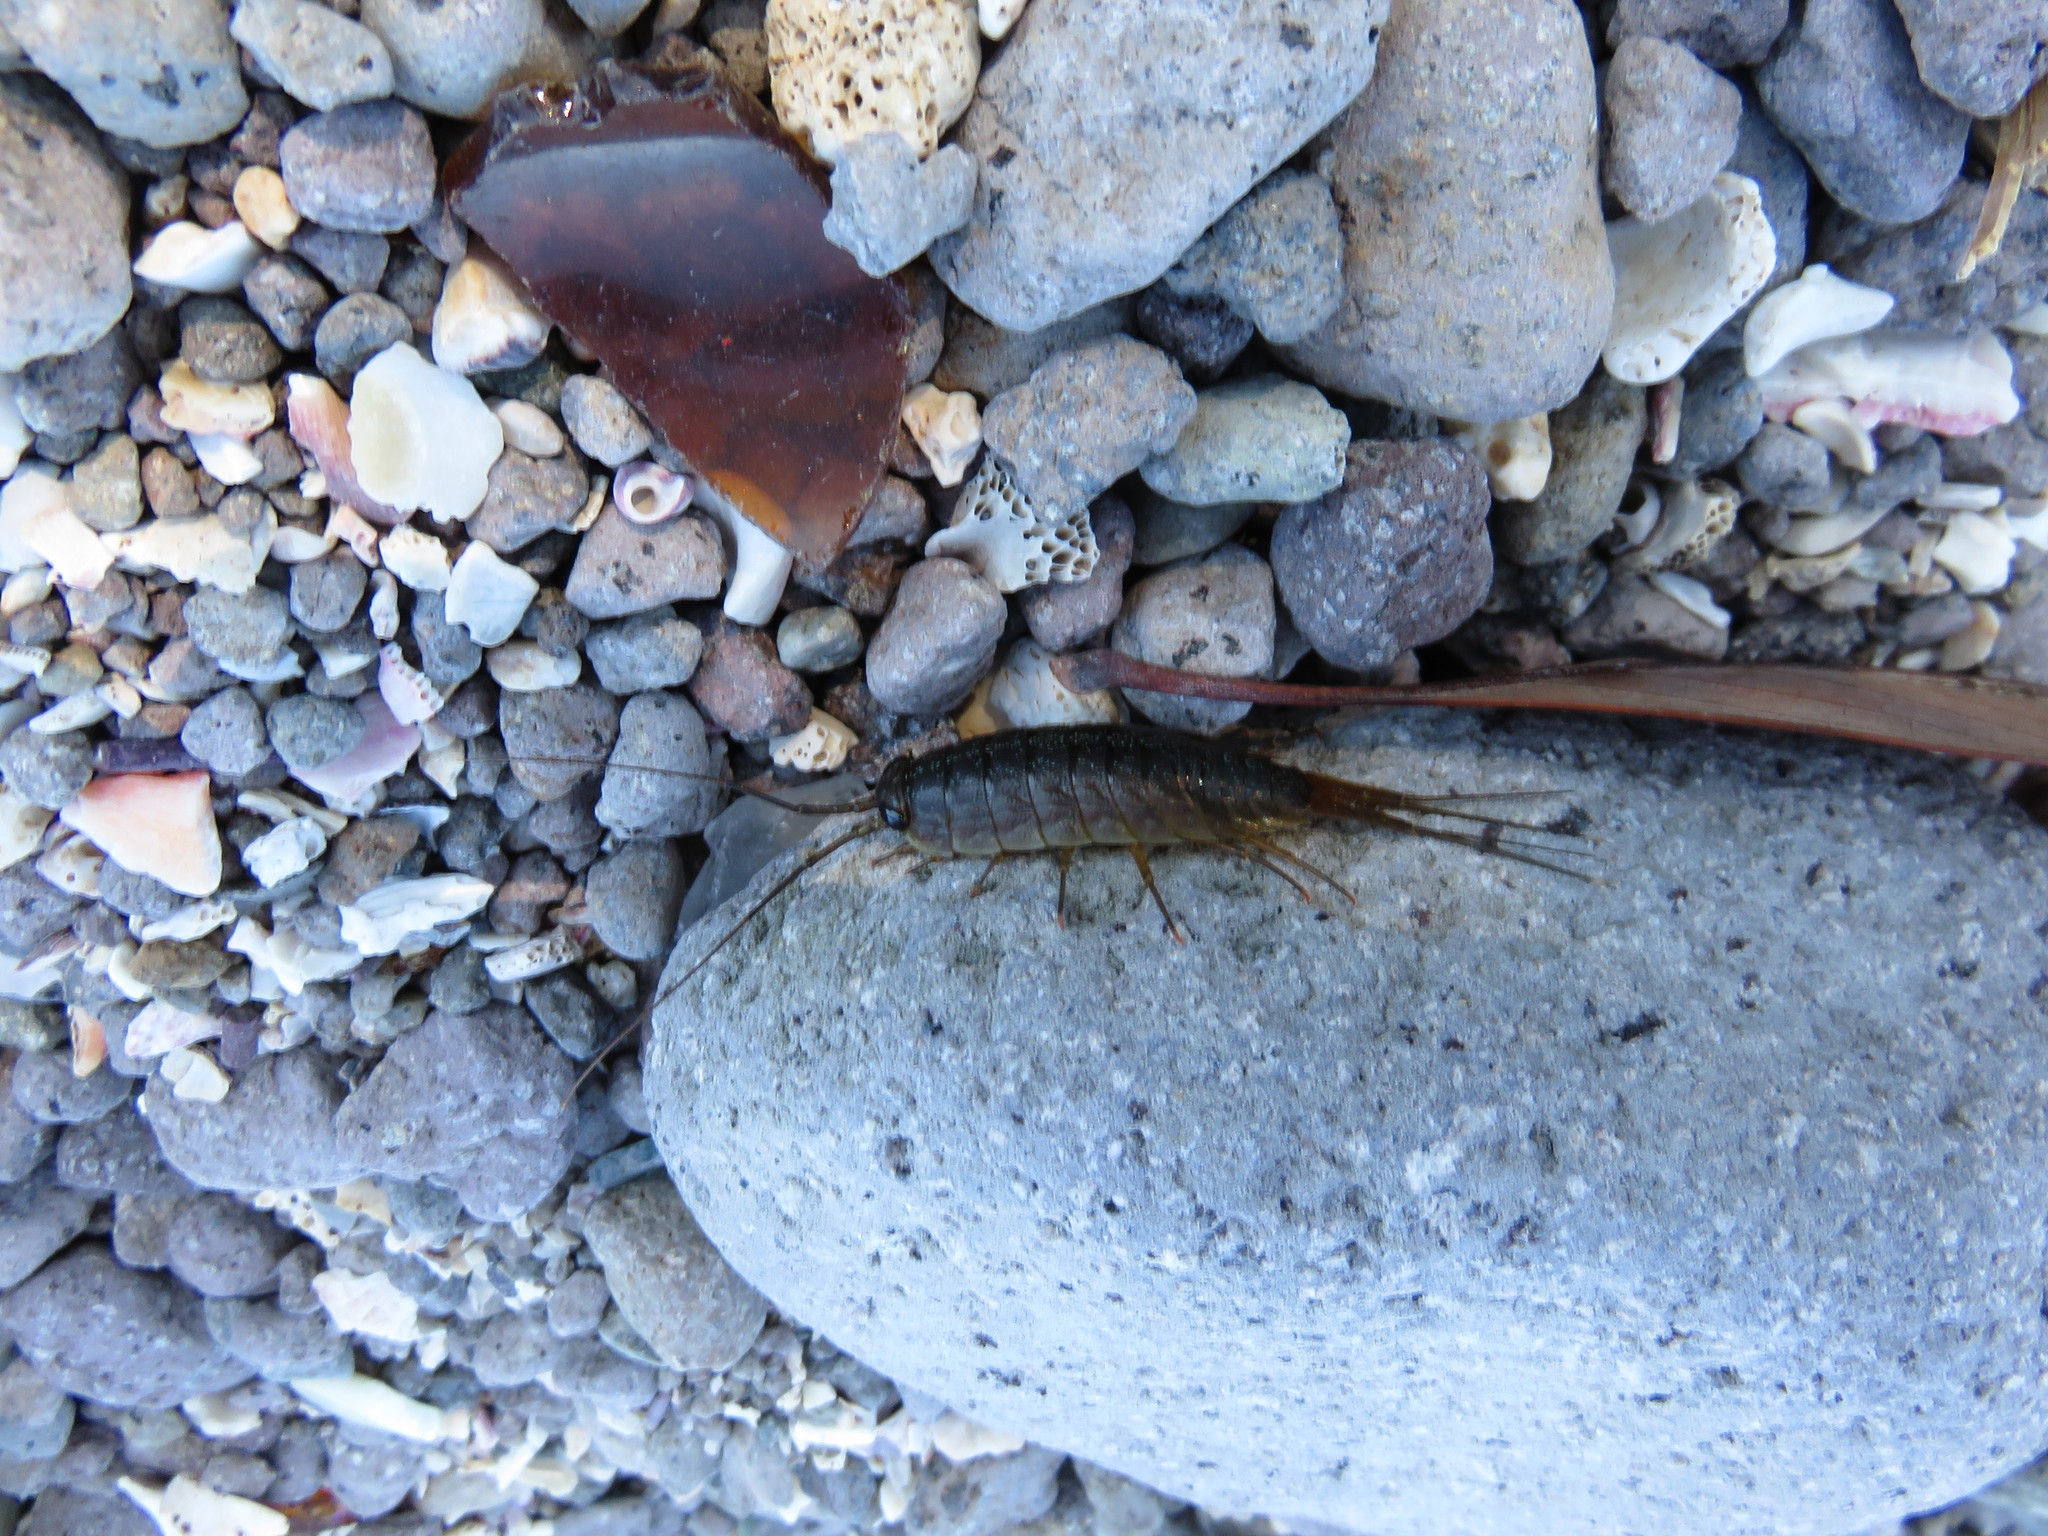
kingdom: Animalia
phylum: Arthropoda
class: Malacostraca
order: Isopoda
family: Ligiidae
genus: Ligia
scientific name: Ligia exotica
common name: Wharf roach
